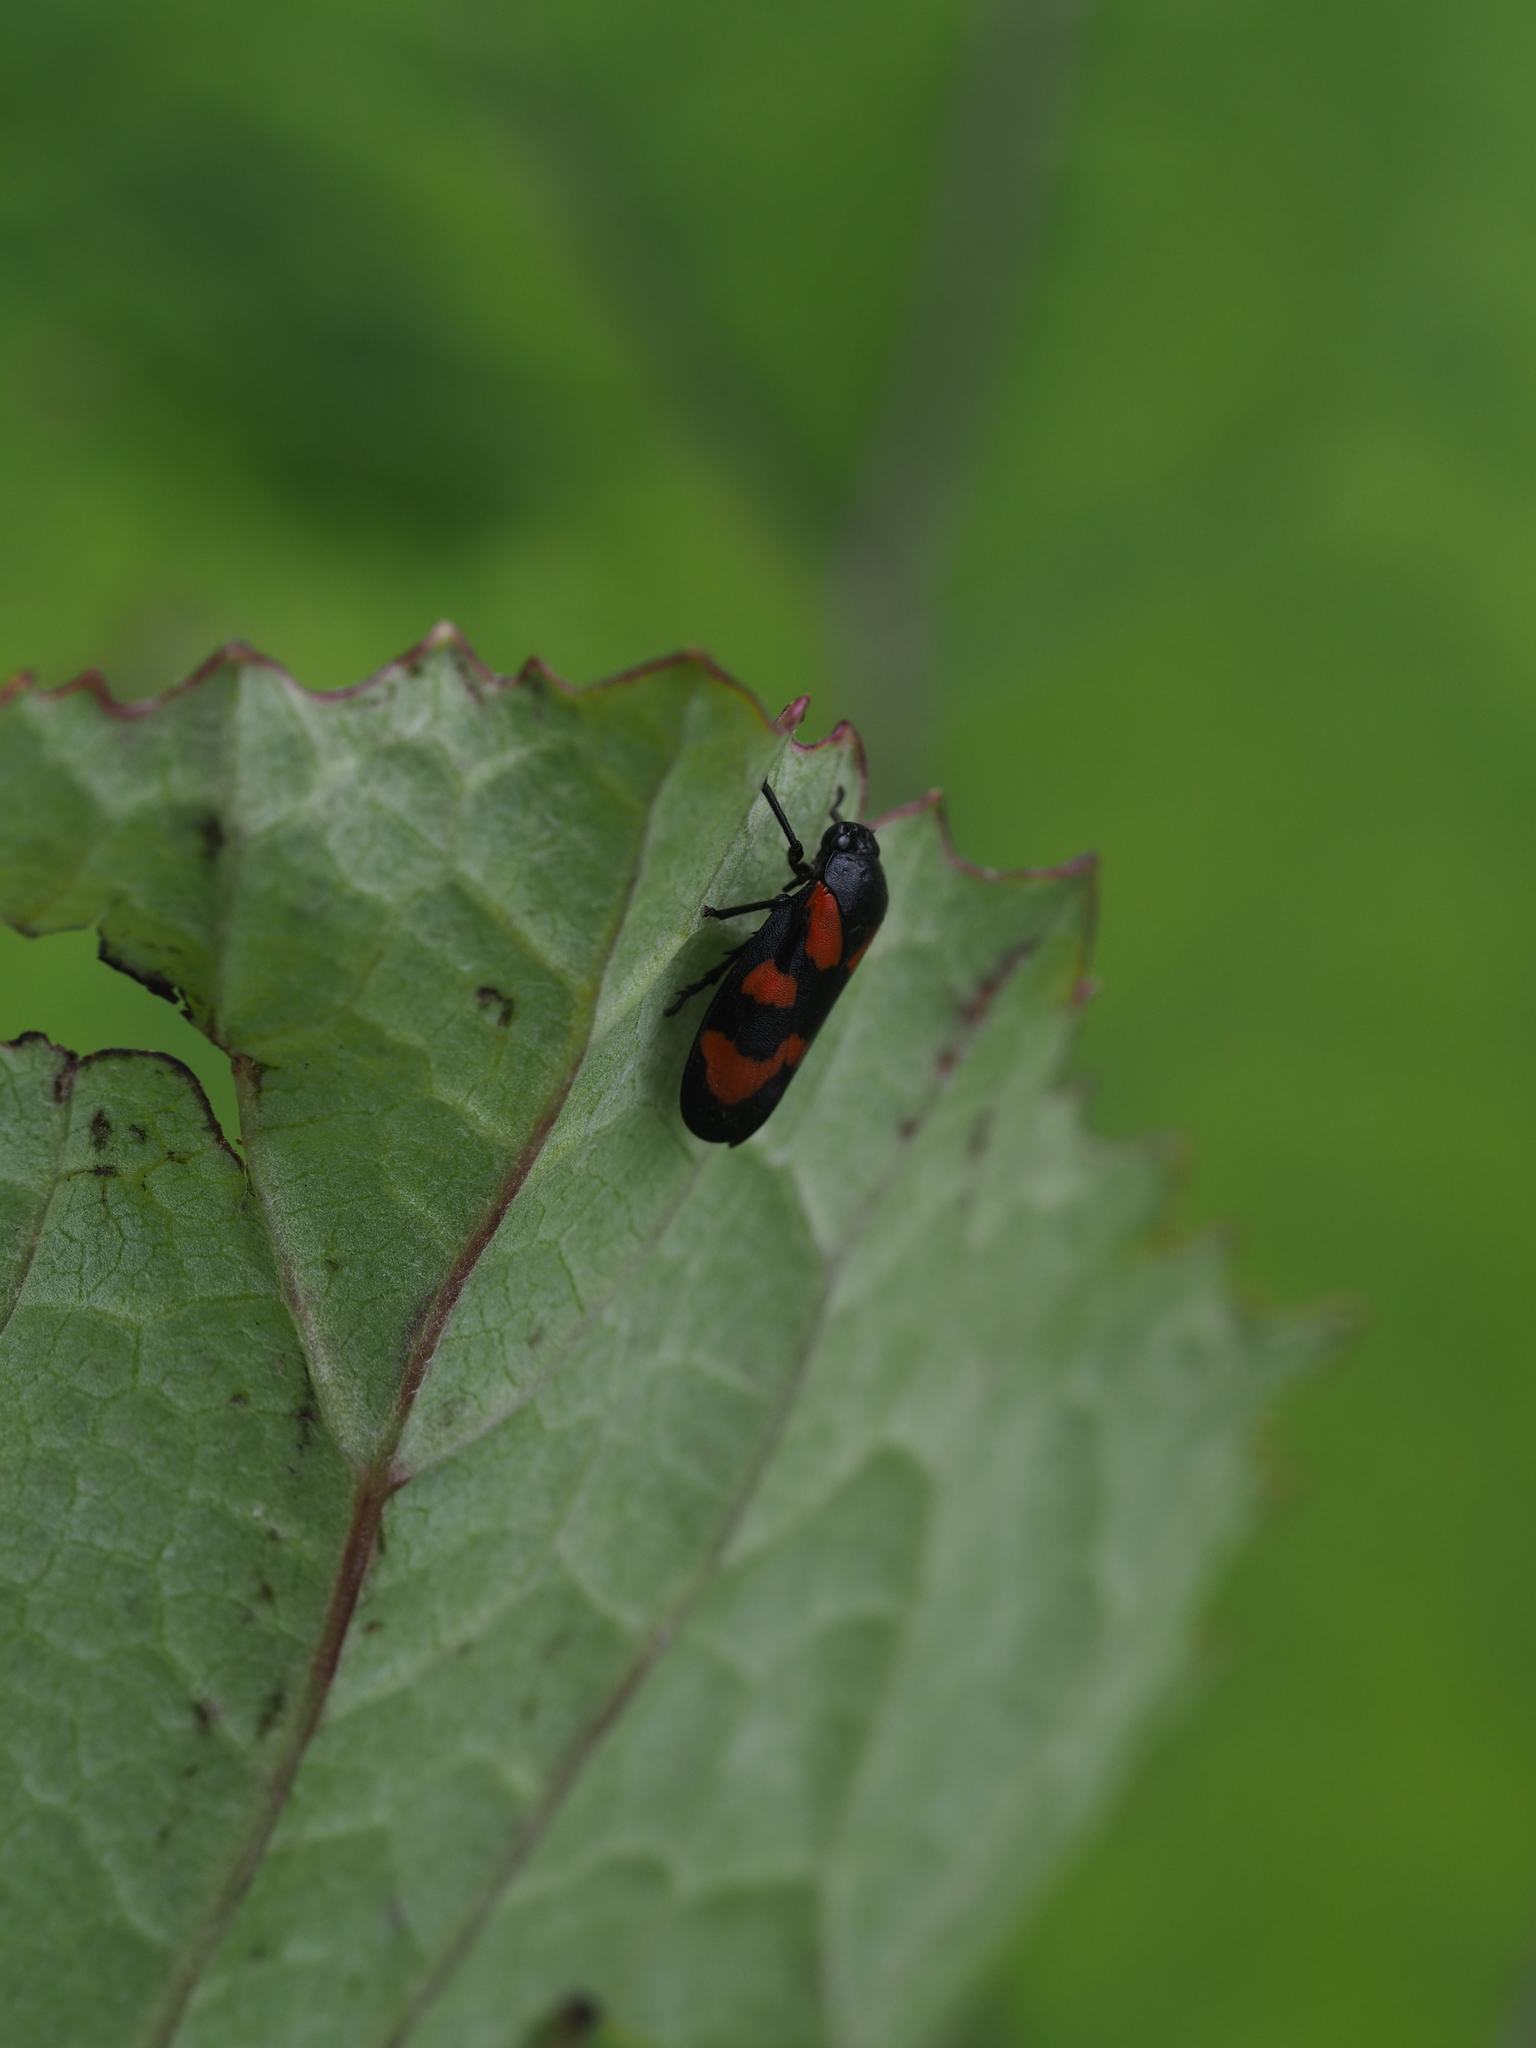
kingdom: Animalia
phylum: Arthropoda
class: Insecta
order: Hemiptera
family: Cercopidae
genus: Cercopis
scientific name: Cercopis vulnerata
